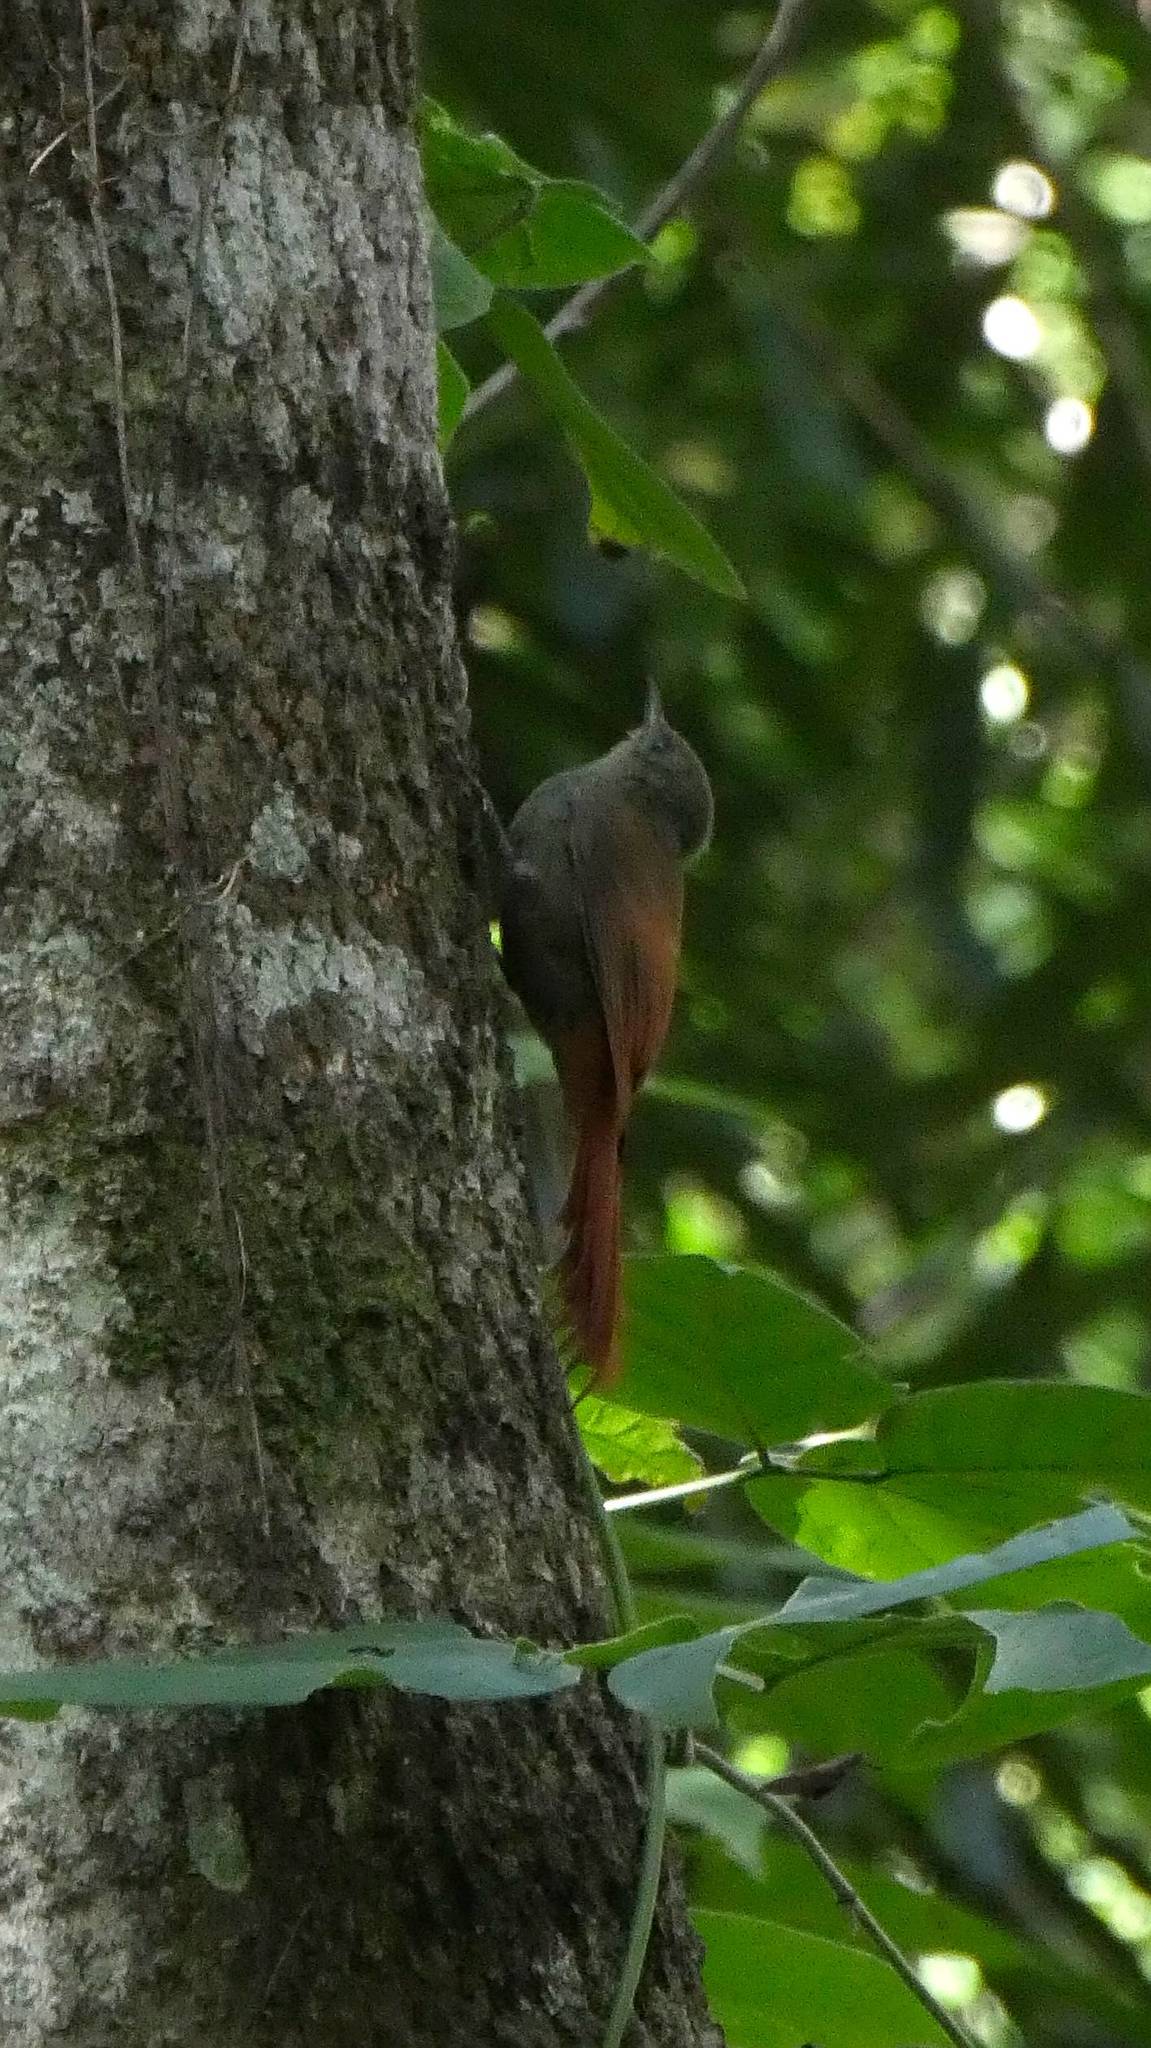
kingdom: Animalia
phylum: Chordata
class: Aves
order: Passeriformes
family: Furnariidae
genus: Sittasomus
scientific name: Sittasomus griseicapillus
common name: Olivaceous woodcreeper
